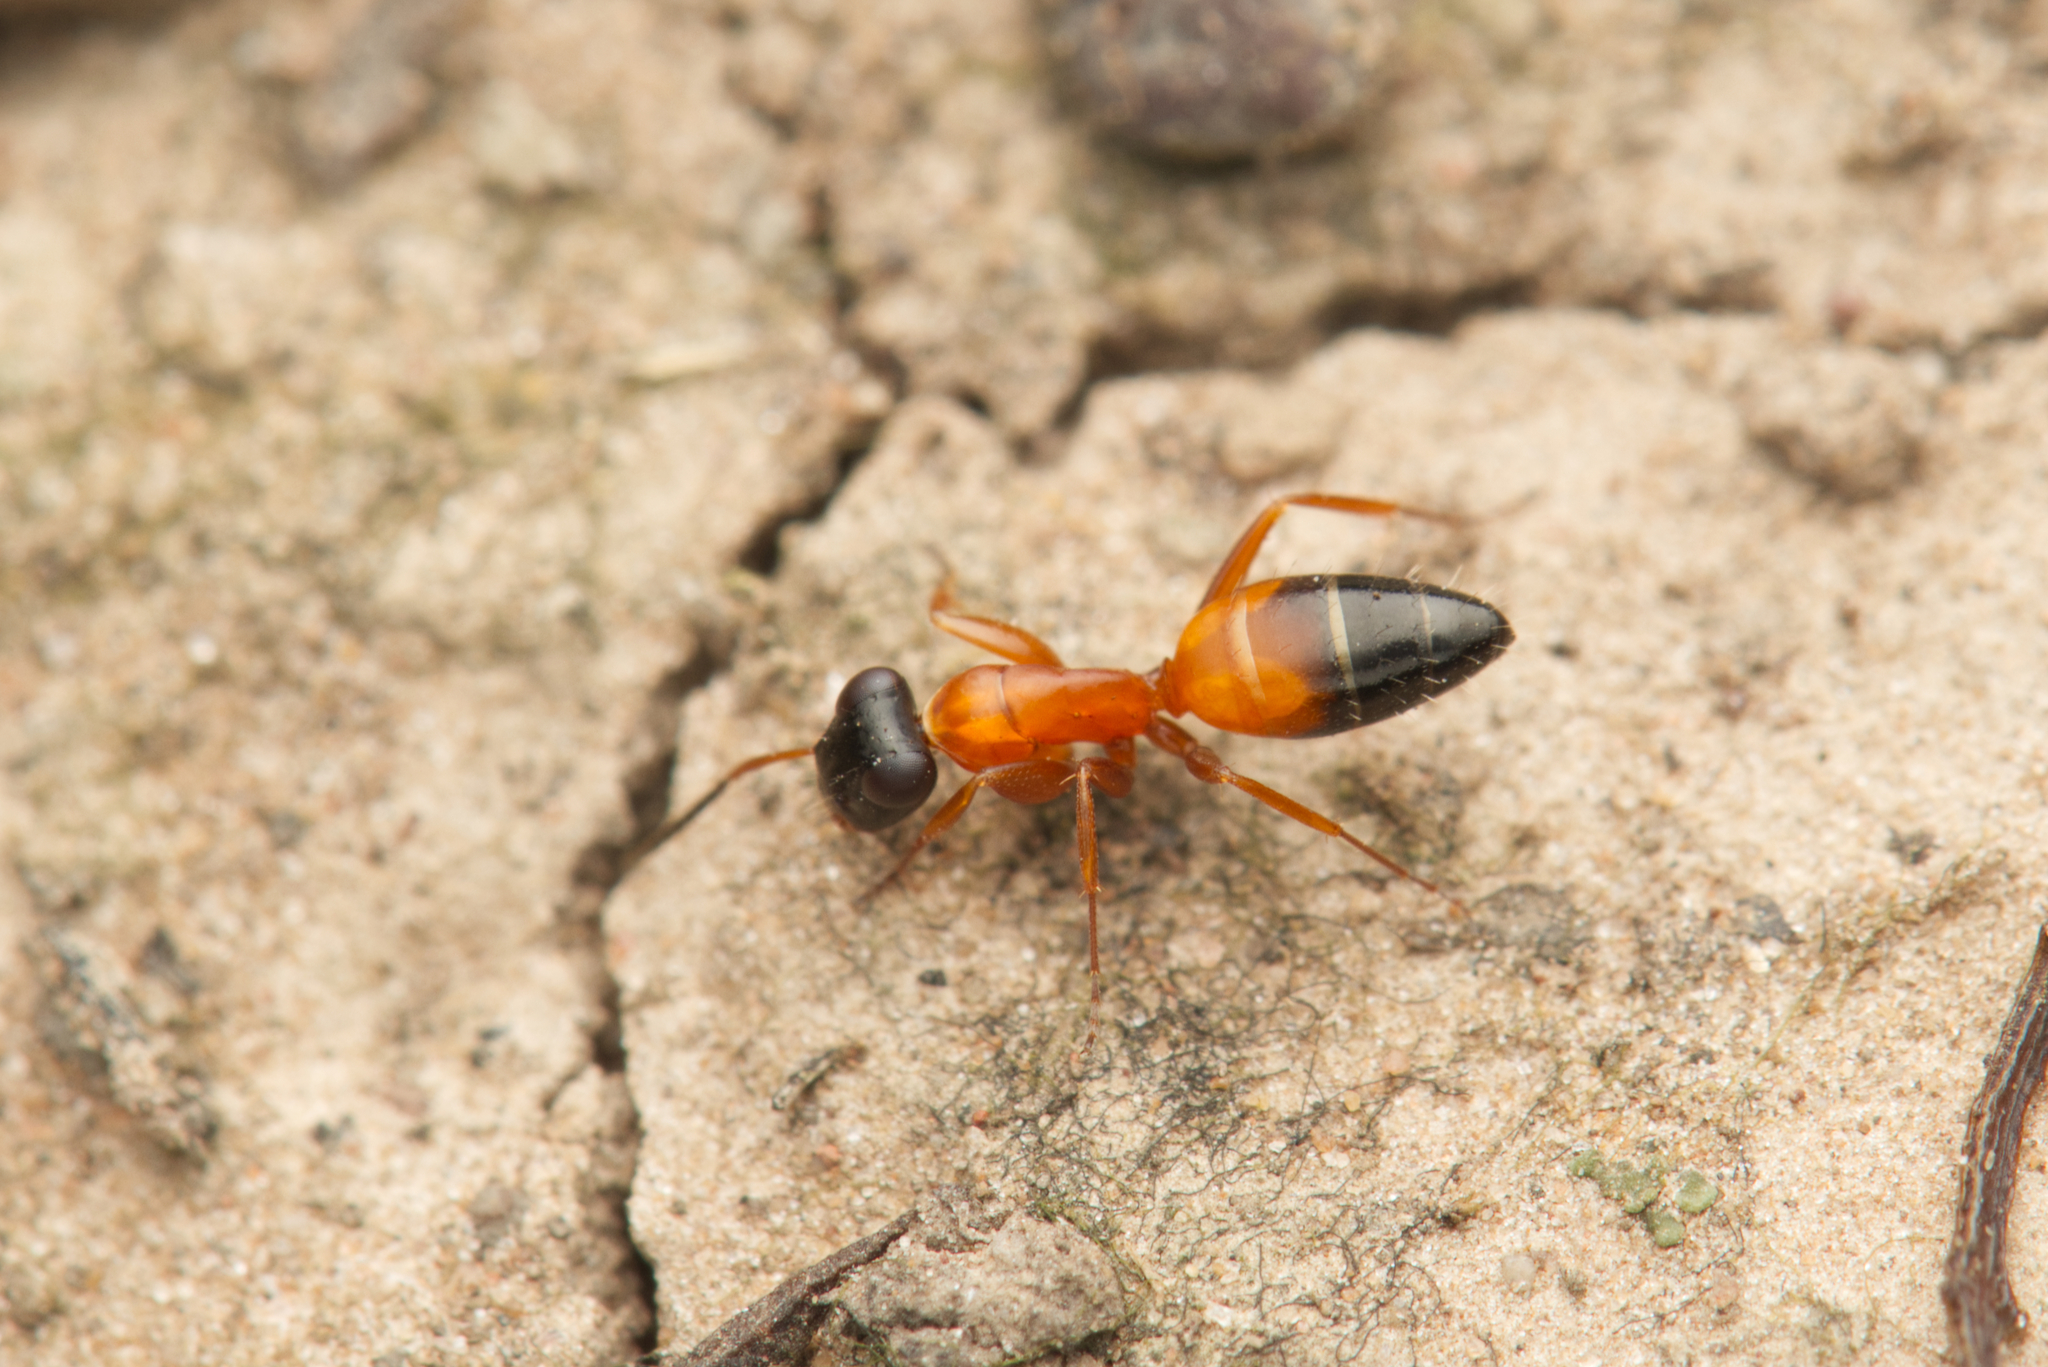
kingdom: Animalia
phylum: Arthropoda
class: Insecta
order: Hymenoptera
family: Formicidae
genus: Opisthopsis
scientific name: Opisthopsis rufithorax
